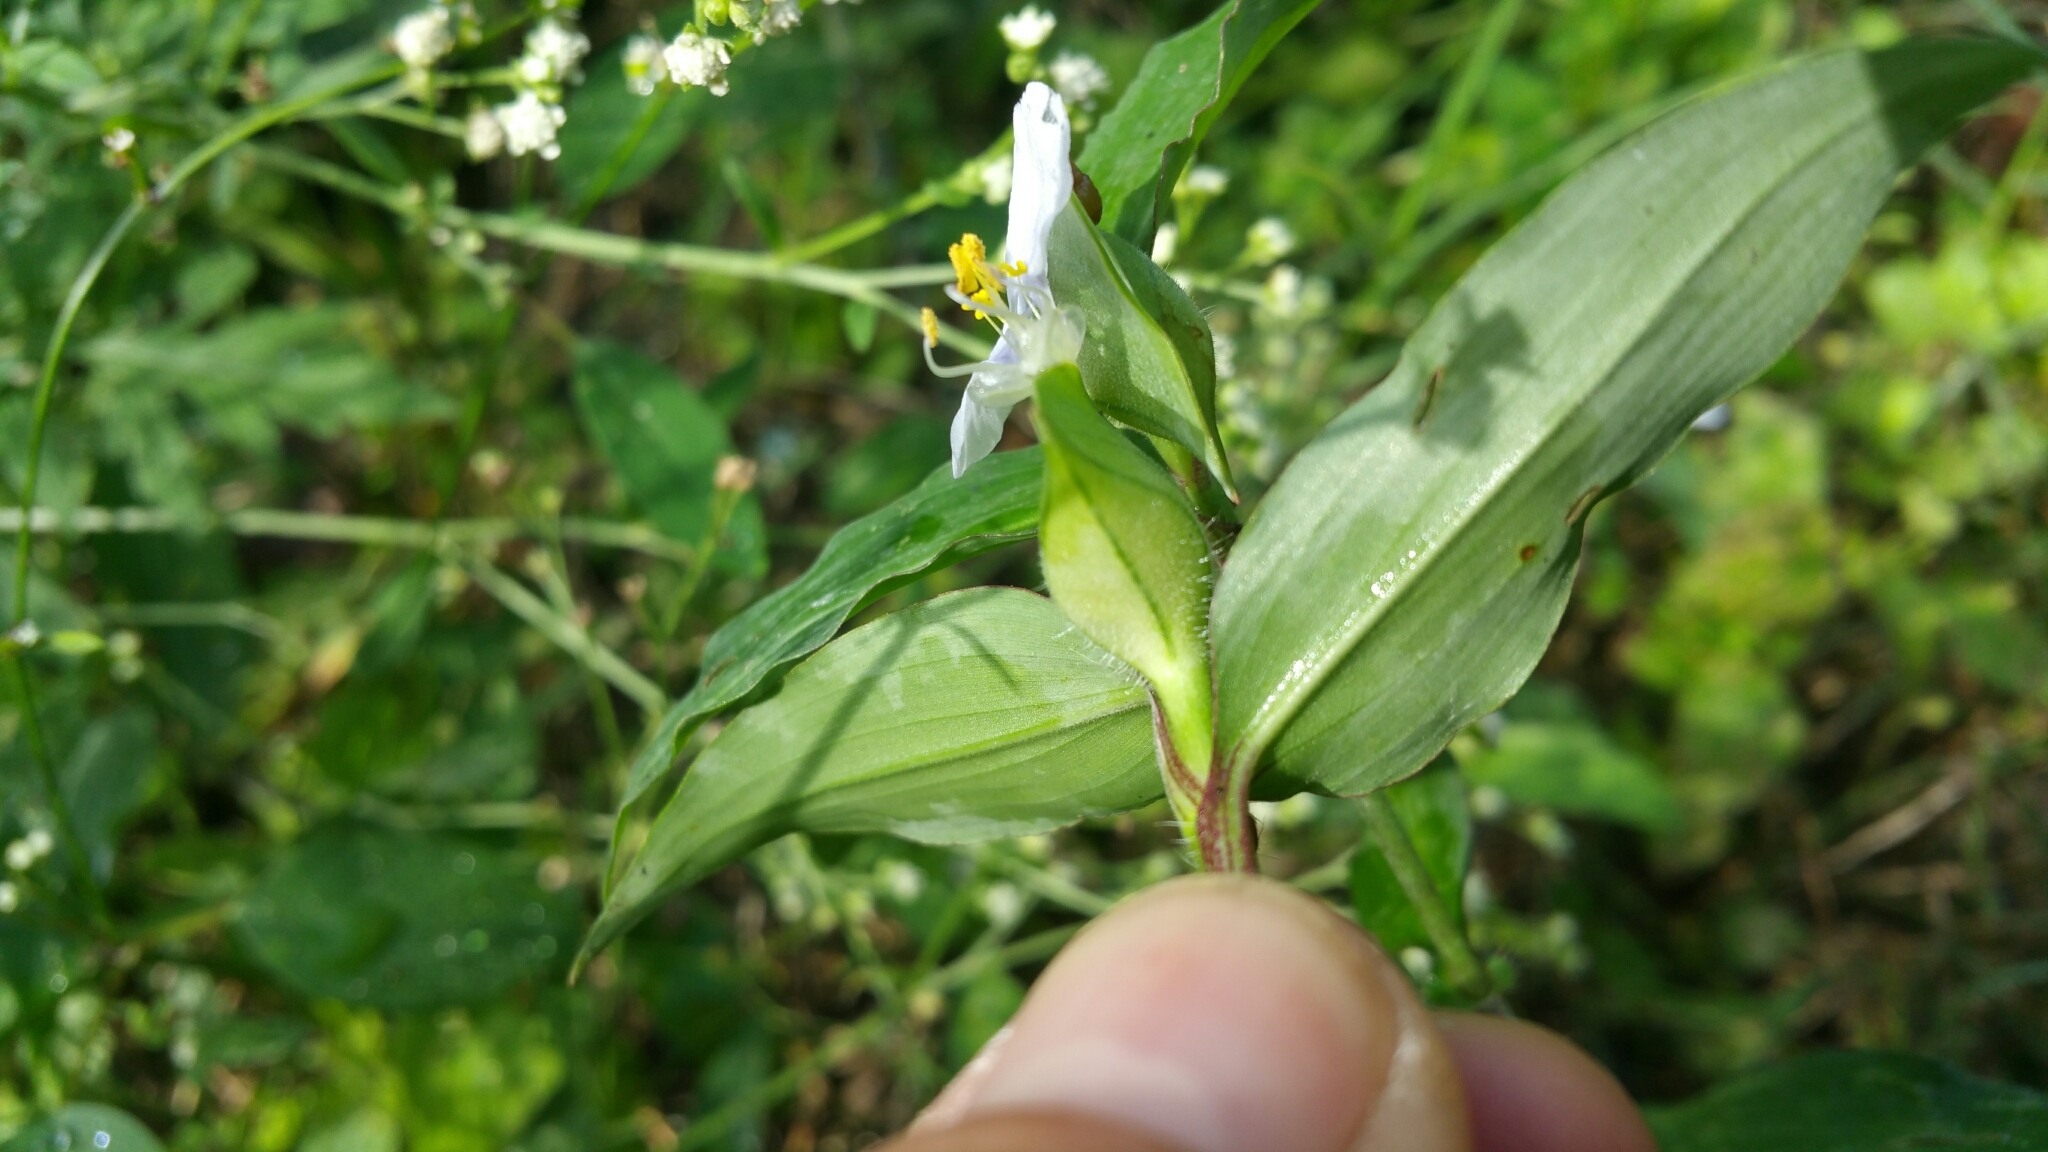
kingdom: Plantae
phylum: Tracheophyta
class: Liliopsida
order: Commelinales
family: Commelinaceae
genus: Commelina
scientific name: Commelina erecta
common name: Blousel blommetjie
